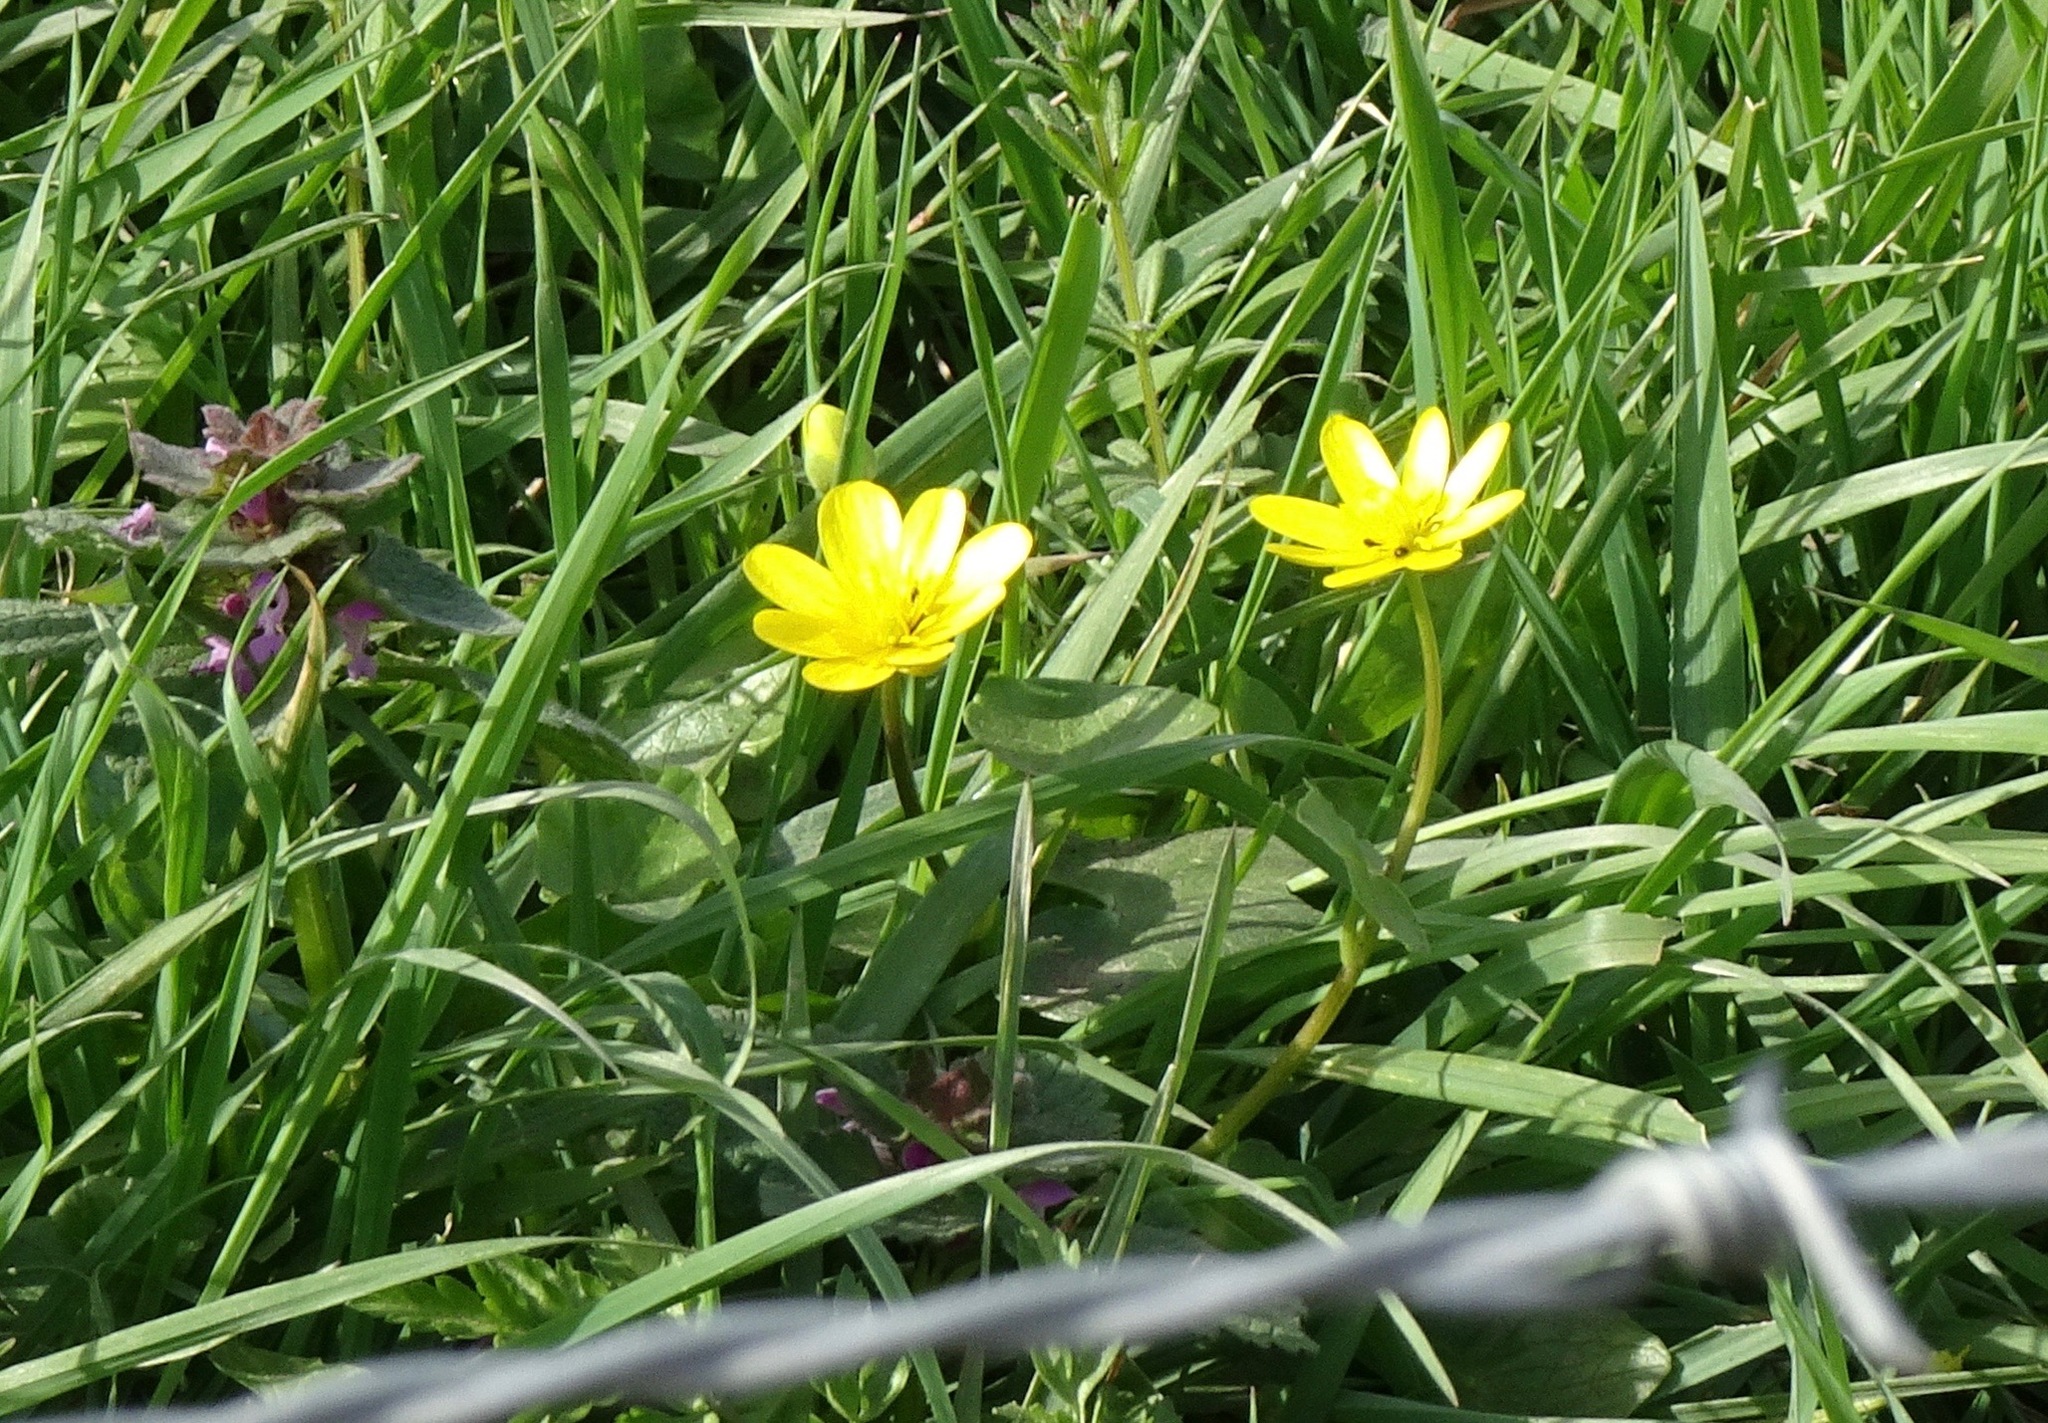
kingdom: Plantae
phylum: Tracheophyta
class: Magnoliopsida
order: Ranunculales
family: Ranunculaceae
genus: Ficaria
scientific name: Ficaria verna
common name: Lesser celandine
